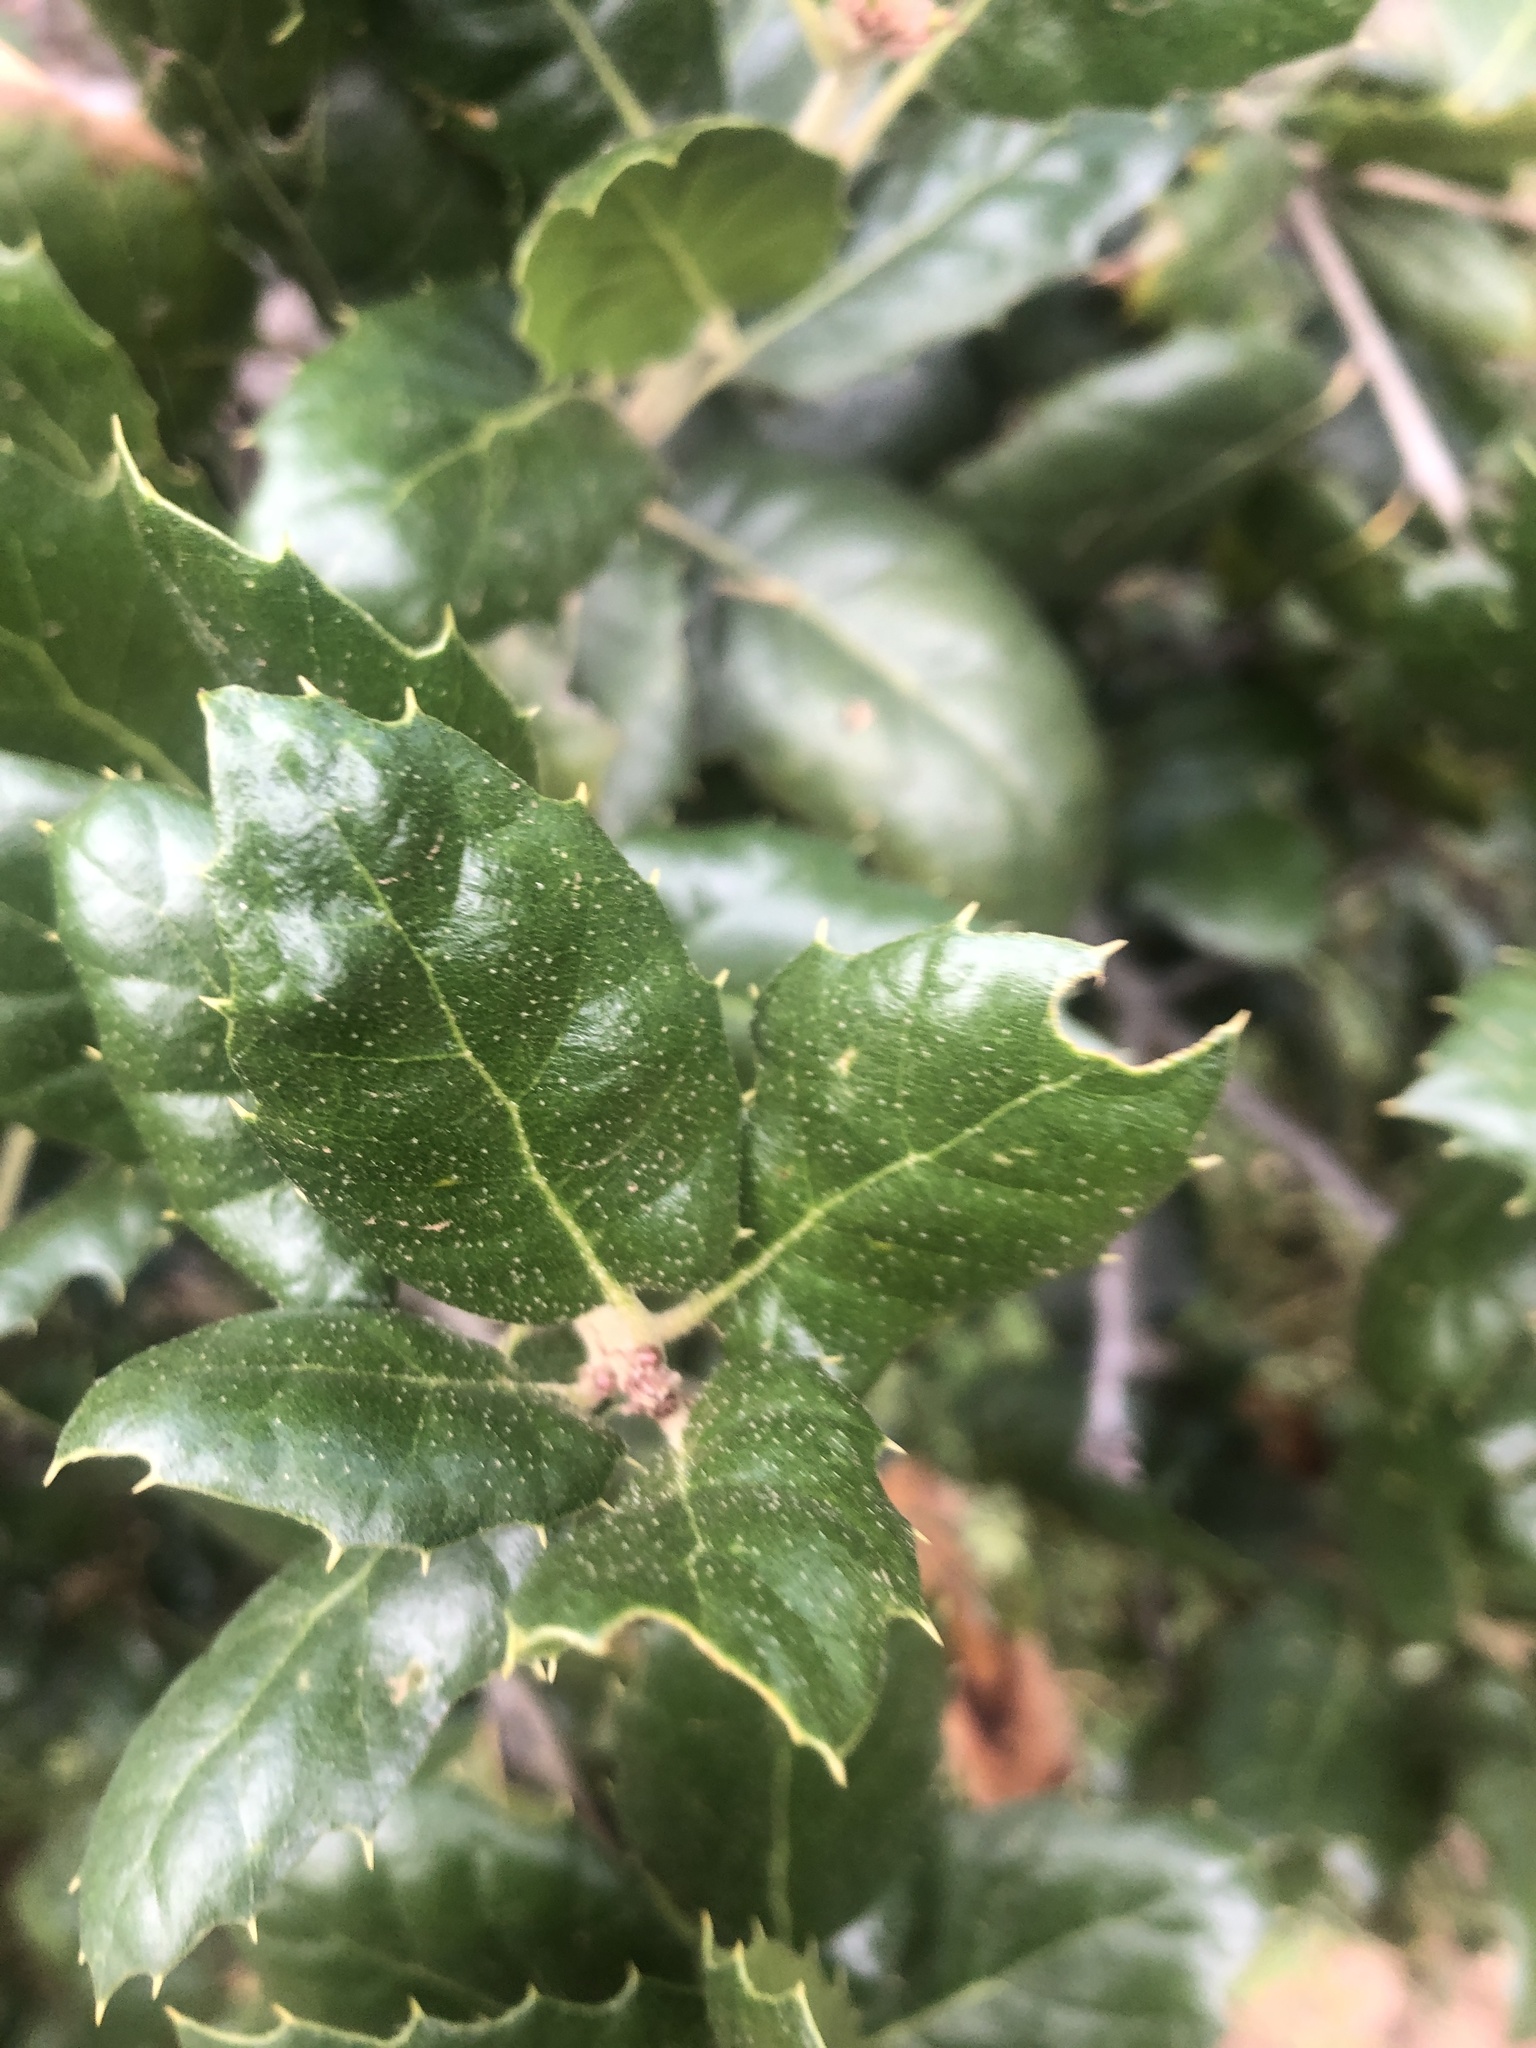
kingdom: Plantae
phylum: Tracheophyta
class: Magnoliopsida
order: Fagales
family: Fagaceae
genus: Quercus
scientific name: Quercus agrifolia
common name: California live oak
